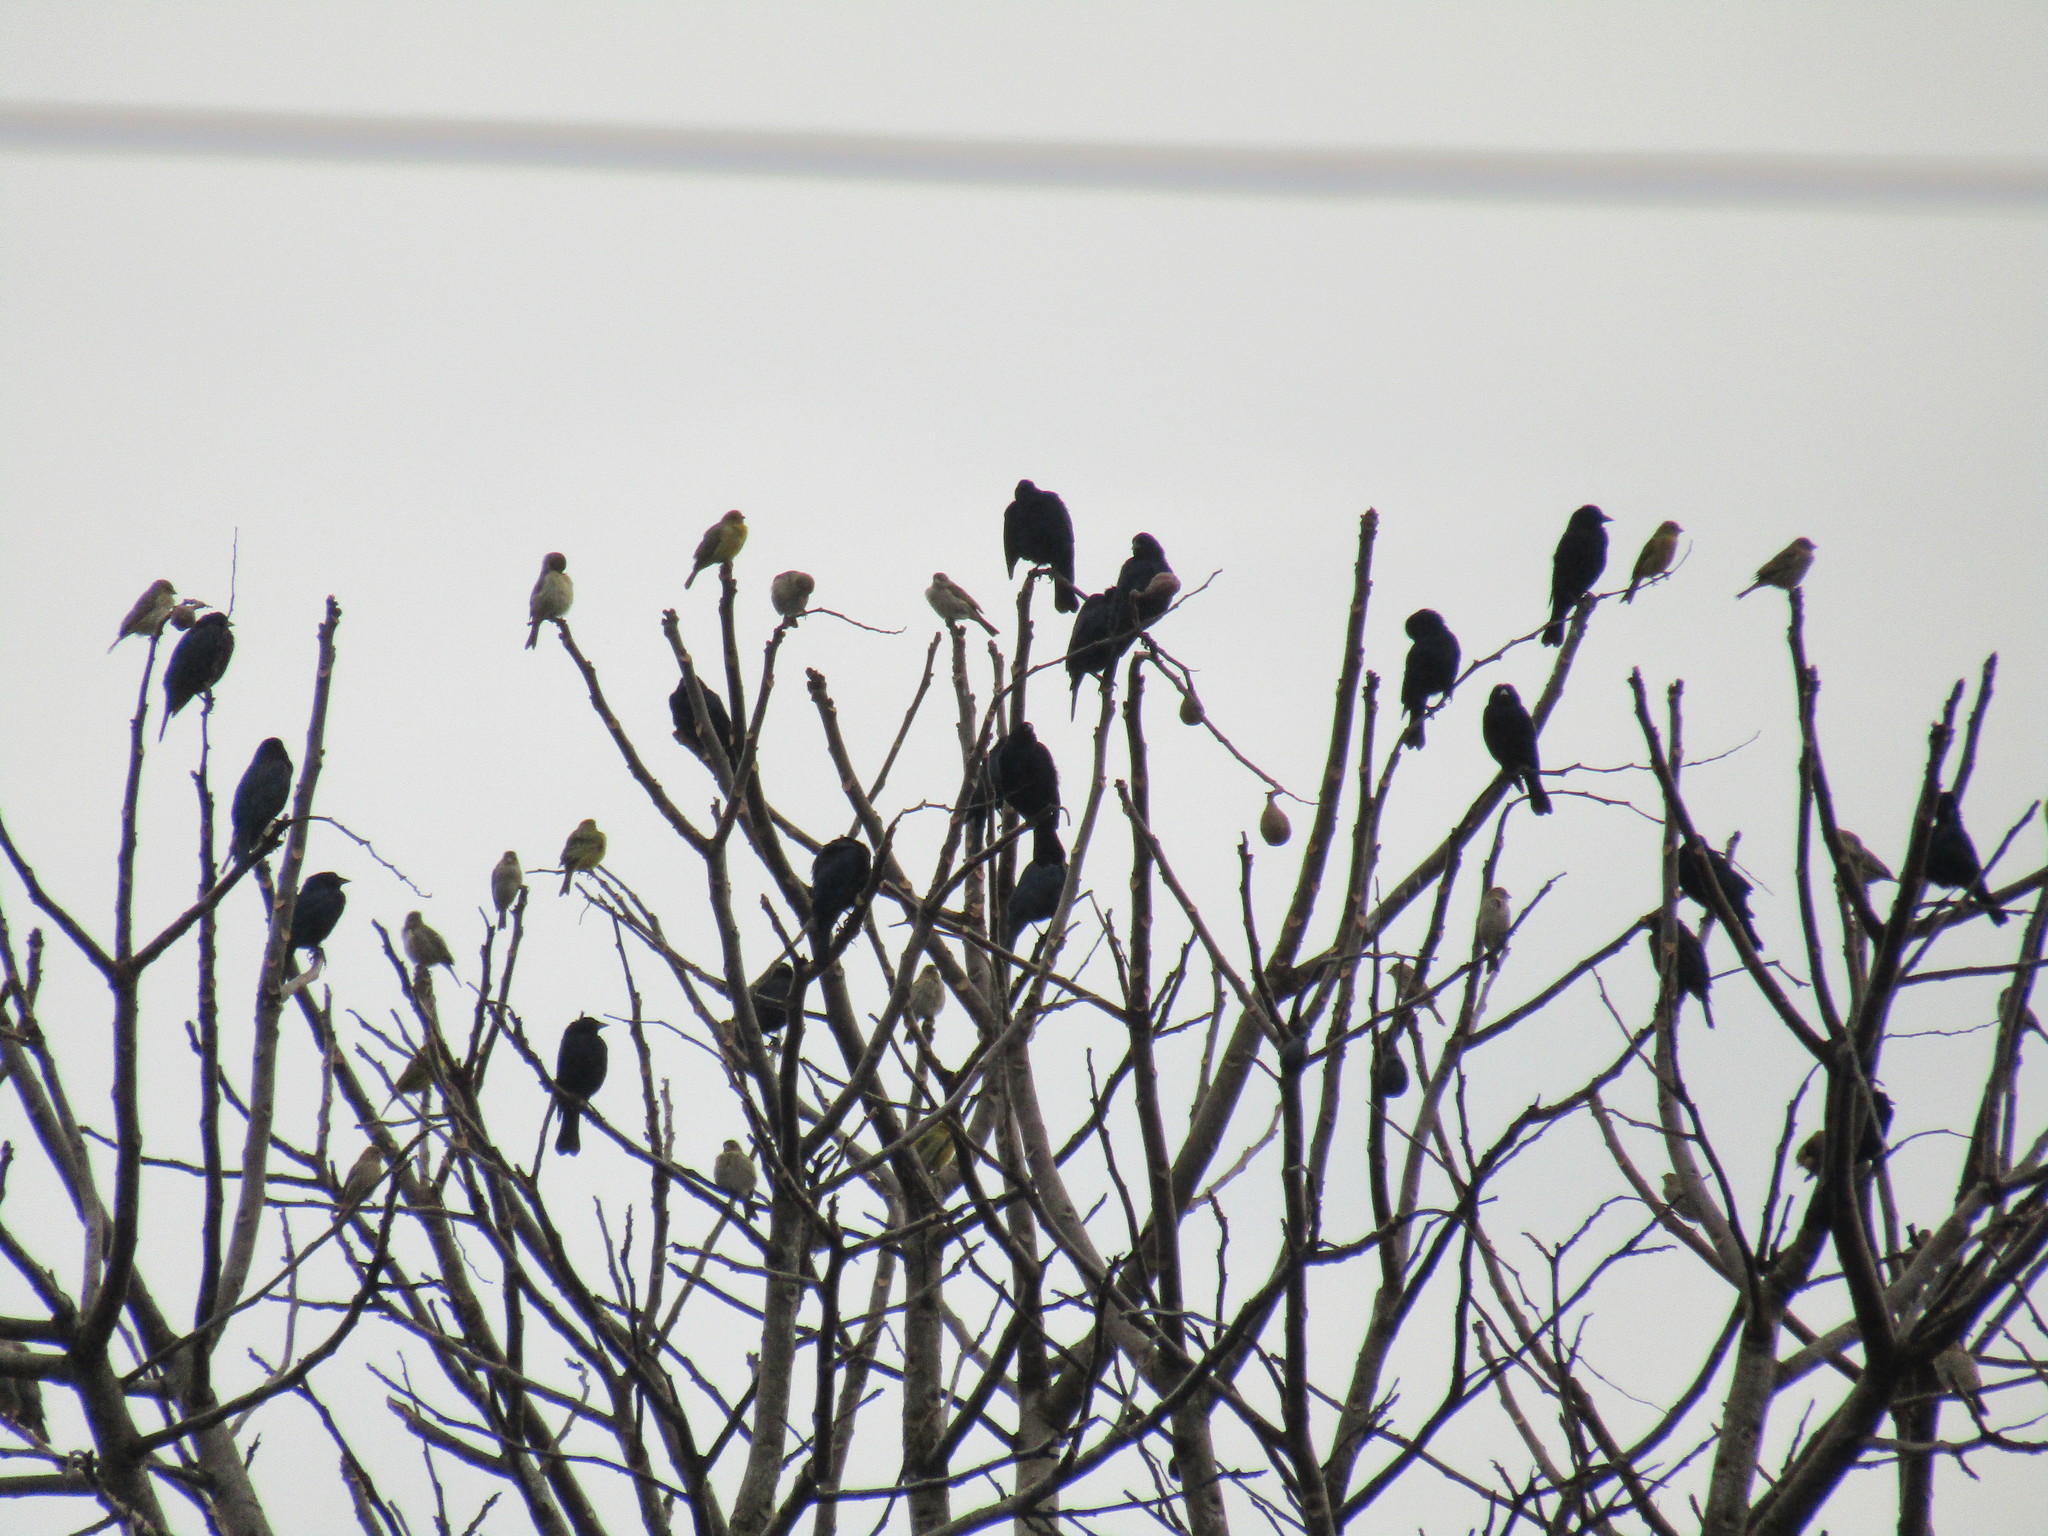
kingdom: Animalia
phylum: Chordata
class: Aves
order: Passeriformes
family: Thraupidae
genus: Sicalis
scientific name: Sicalis flaveola
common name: Saffron finch
